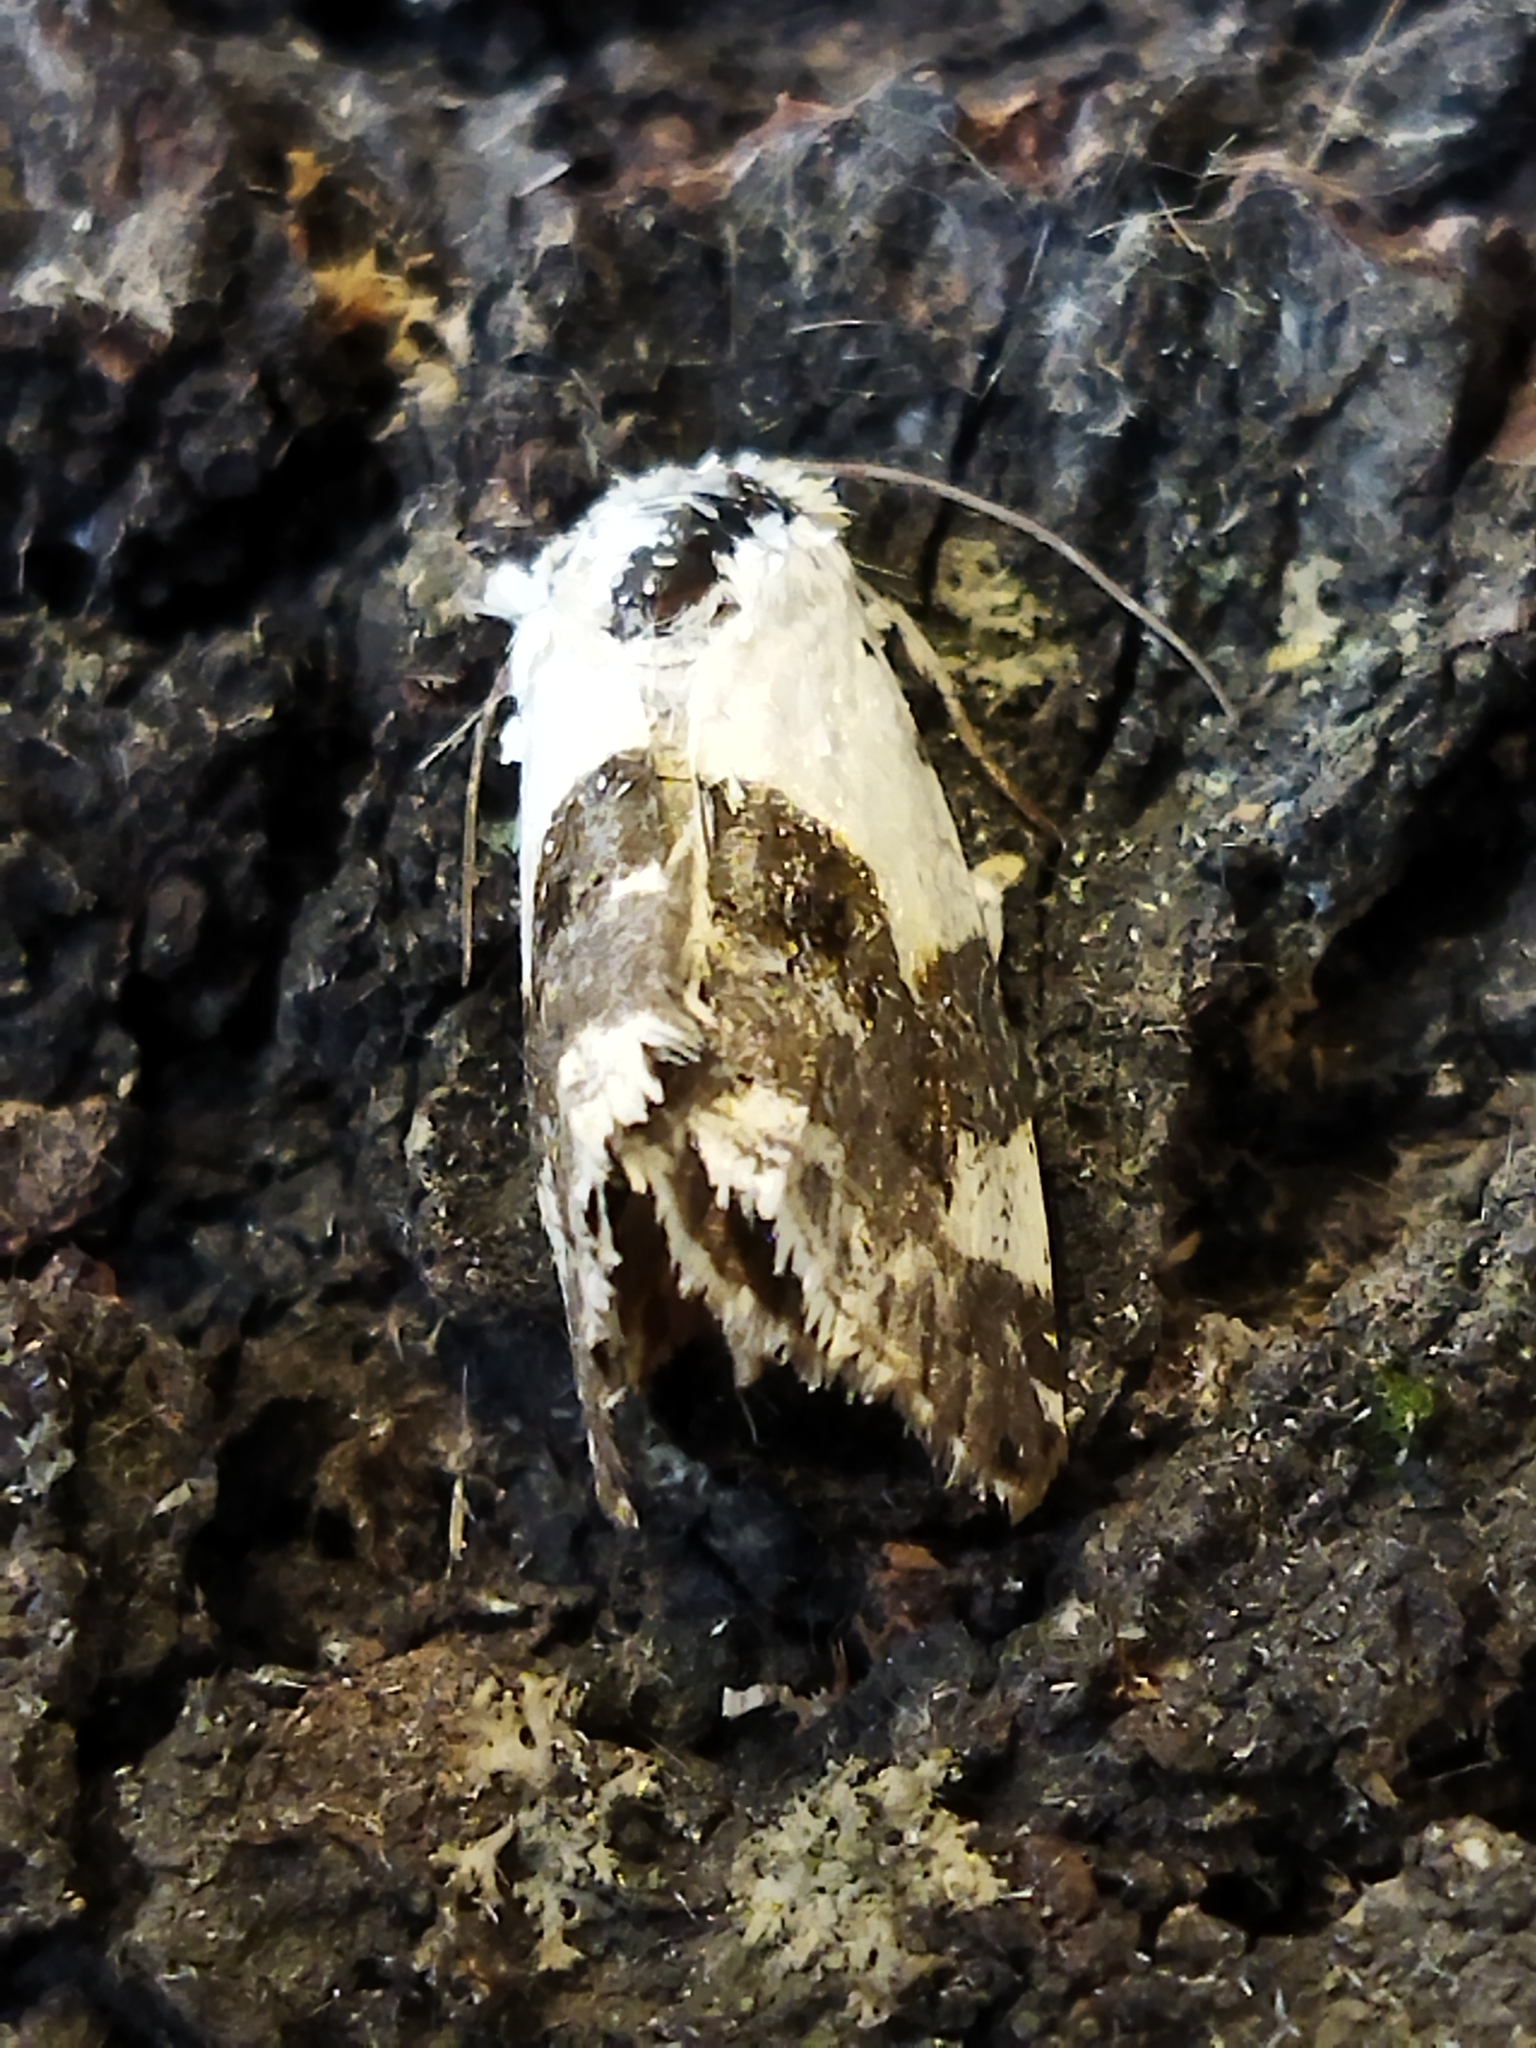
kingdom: Animalia
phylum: Arthropoda
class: Insecta
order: Lepidoptera
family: Noctuidae
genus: Acontia
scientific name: Acontia lucida
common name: Pale shoulder
